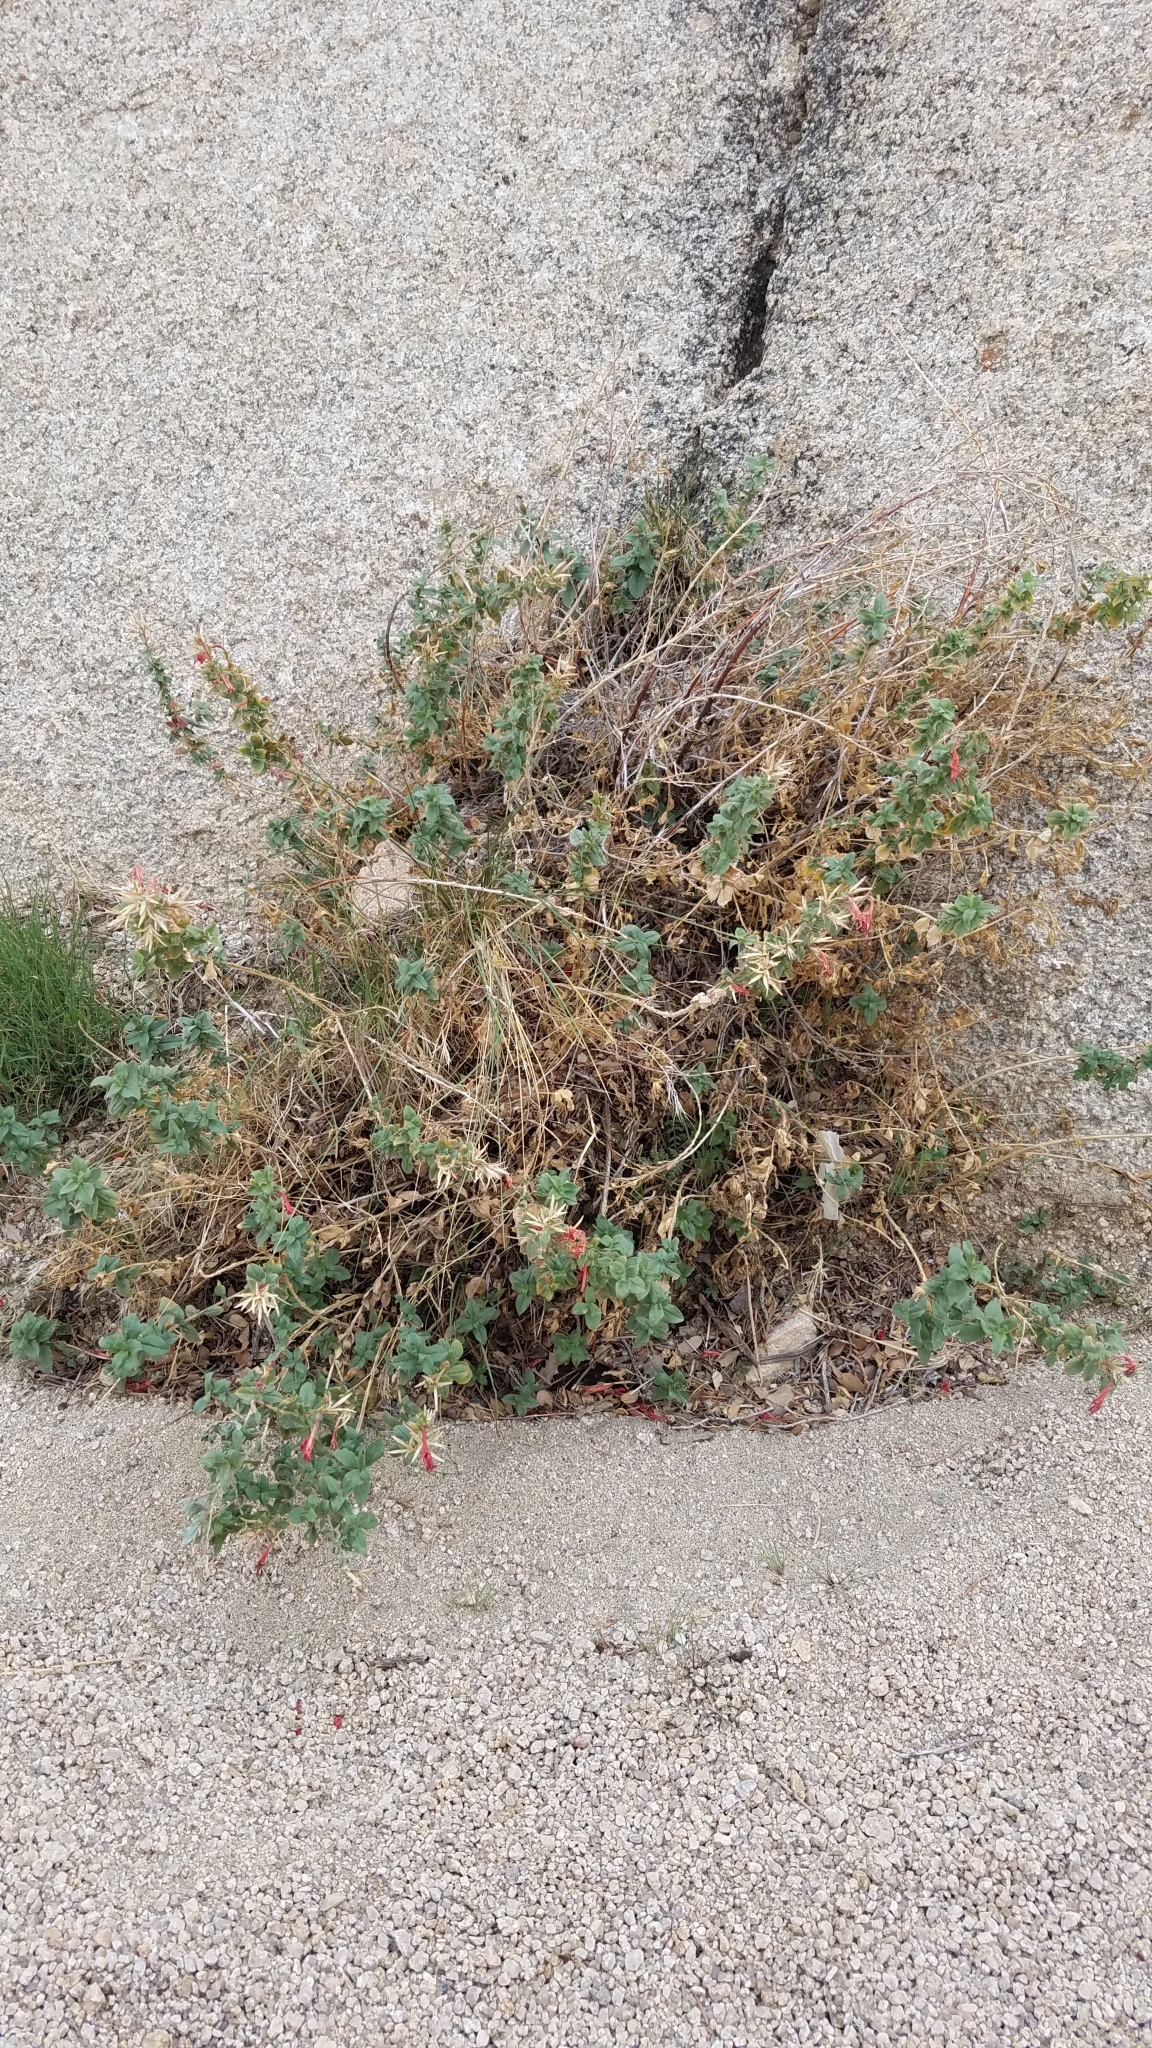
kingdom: Plantae
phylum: Tracheophyta
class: Magnoliopsida
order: Myrtales
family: Onagraceae
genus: Epilobium
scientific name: Epilobium canum
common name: California-fuchsia
